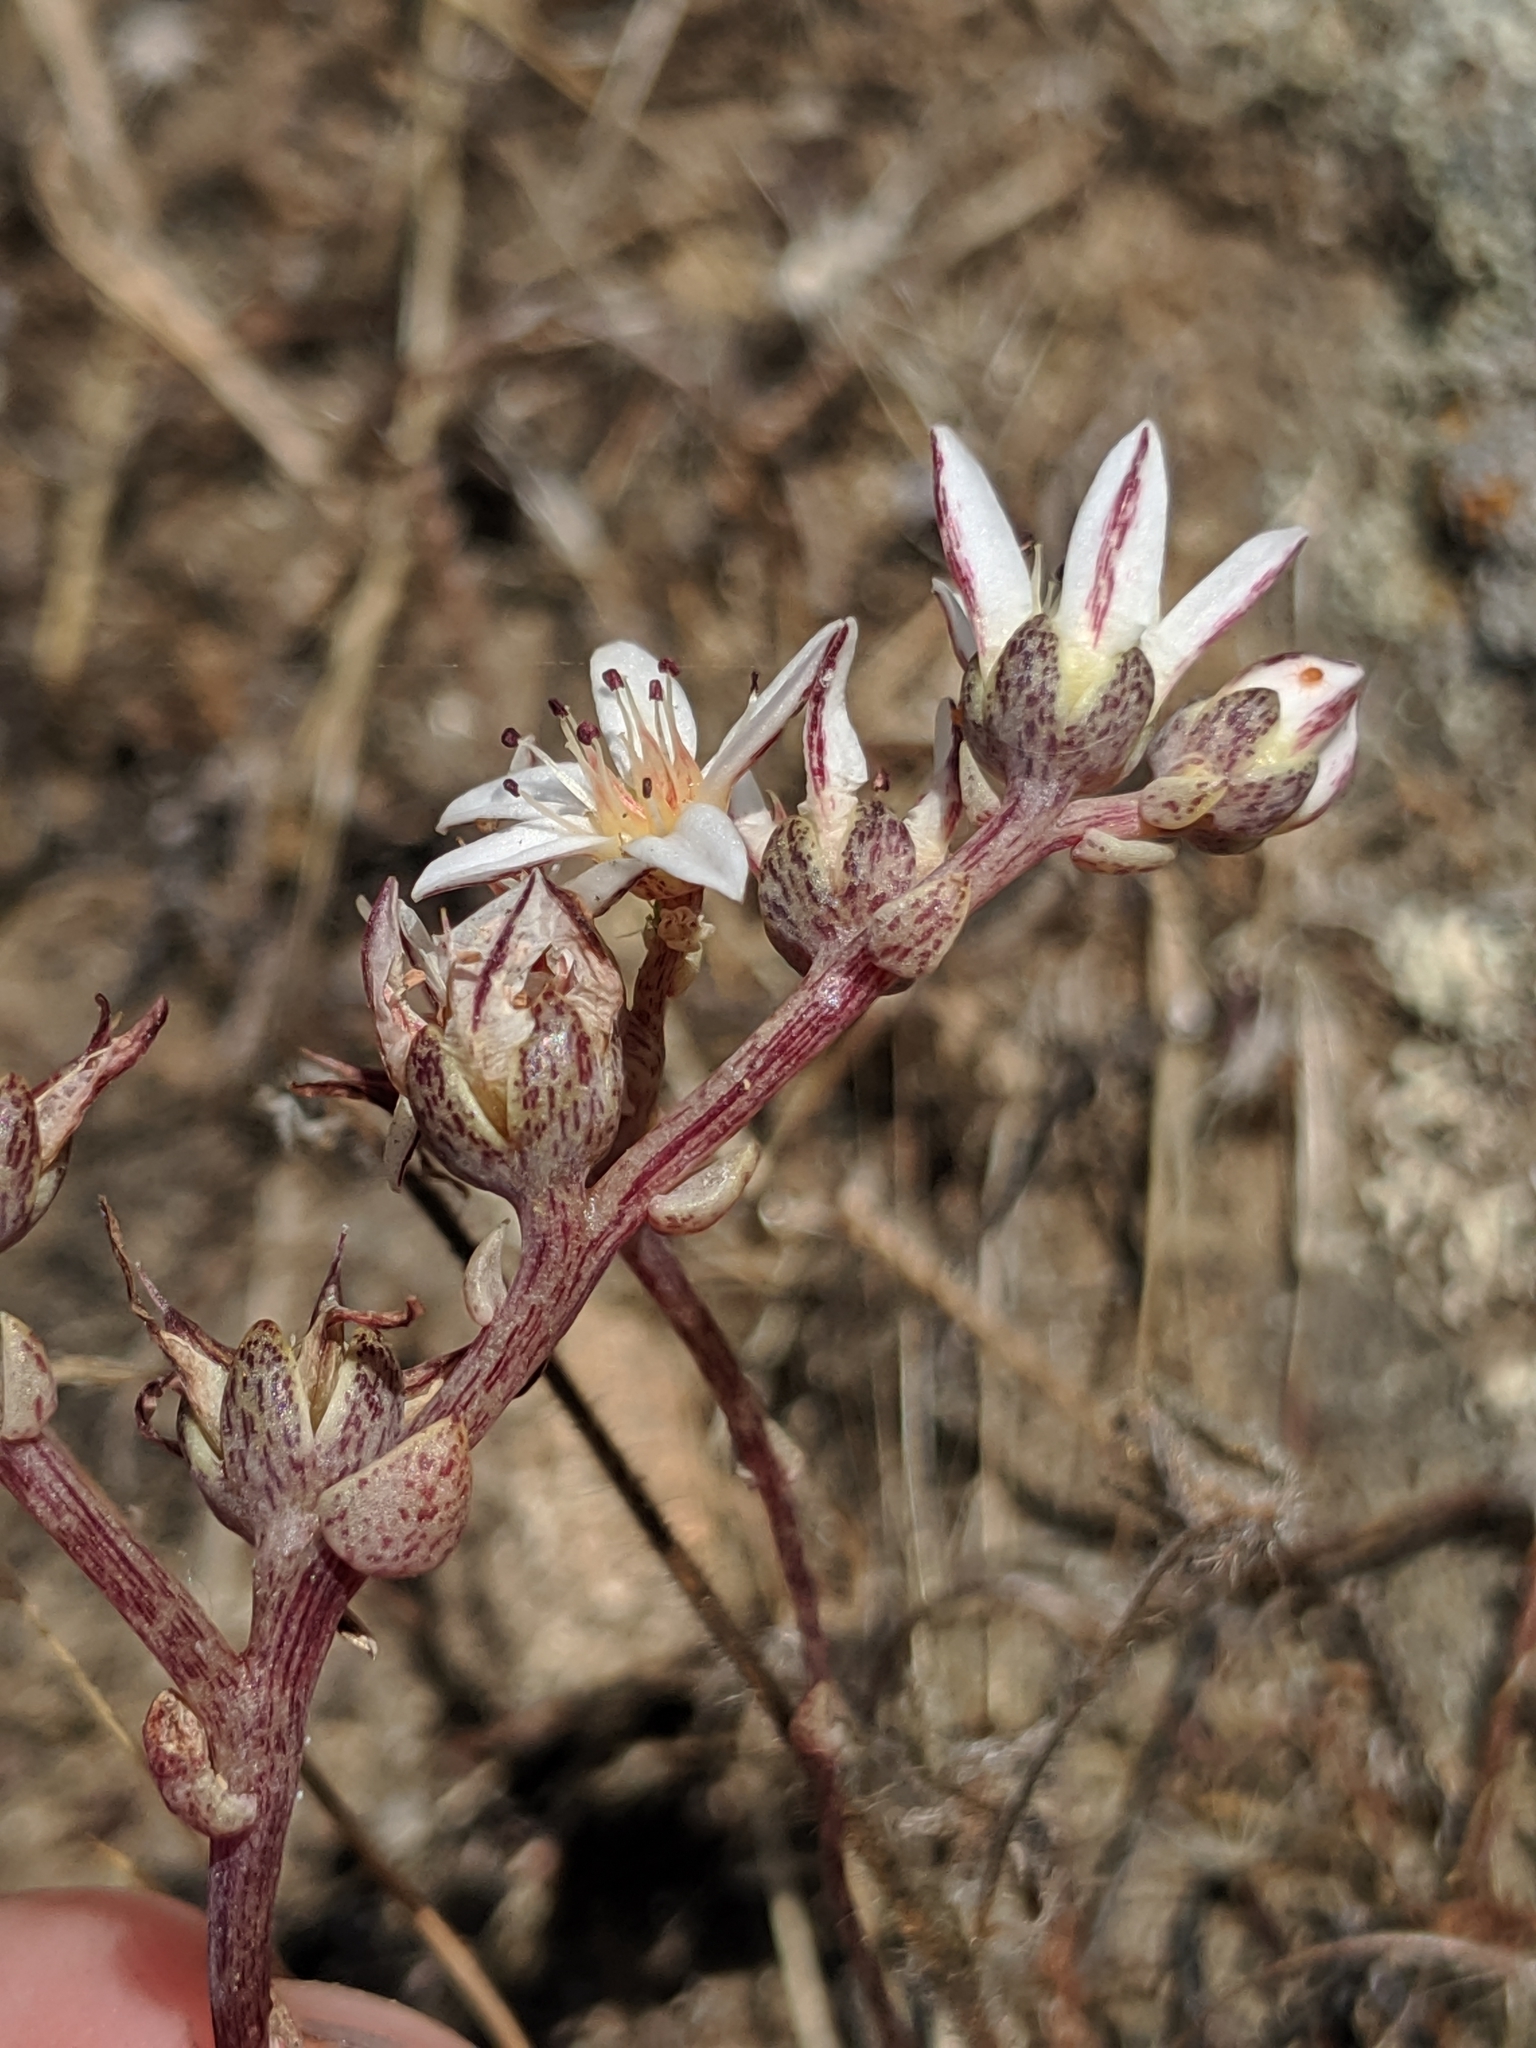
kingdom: Plantae
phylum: Tracheophyta
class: Magnoliopsida
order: Saxifragales
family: Crassulaceae
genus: Dudleya
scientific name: Dudleya blochmaniae
